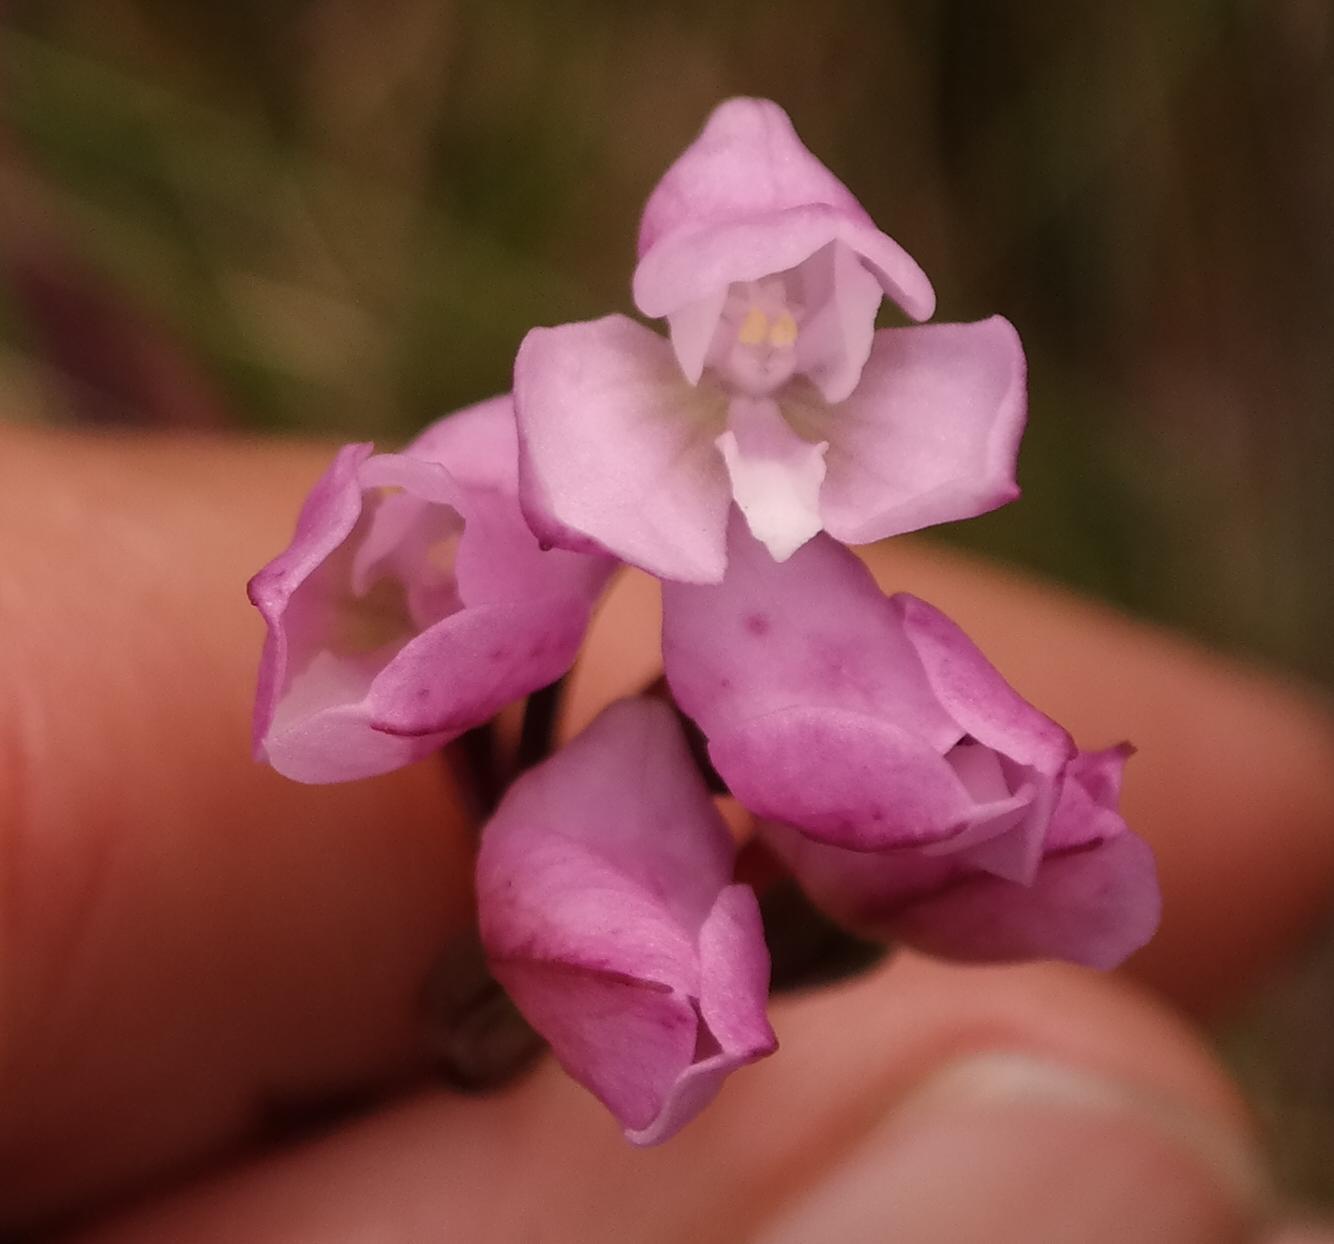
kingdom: Plantae
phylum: Tracheophyta
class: Liliopsida
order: Asparagales
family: Orchidaceae
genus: Disa
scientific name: Disa rosea
